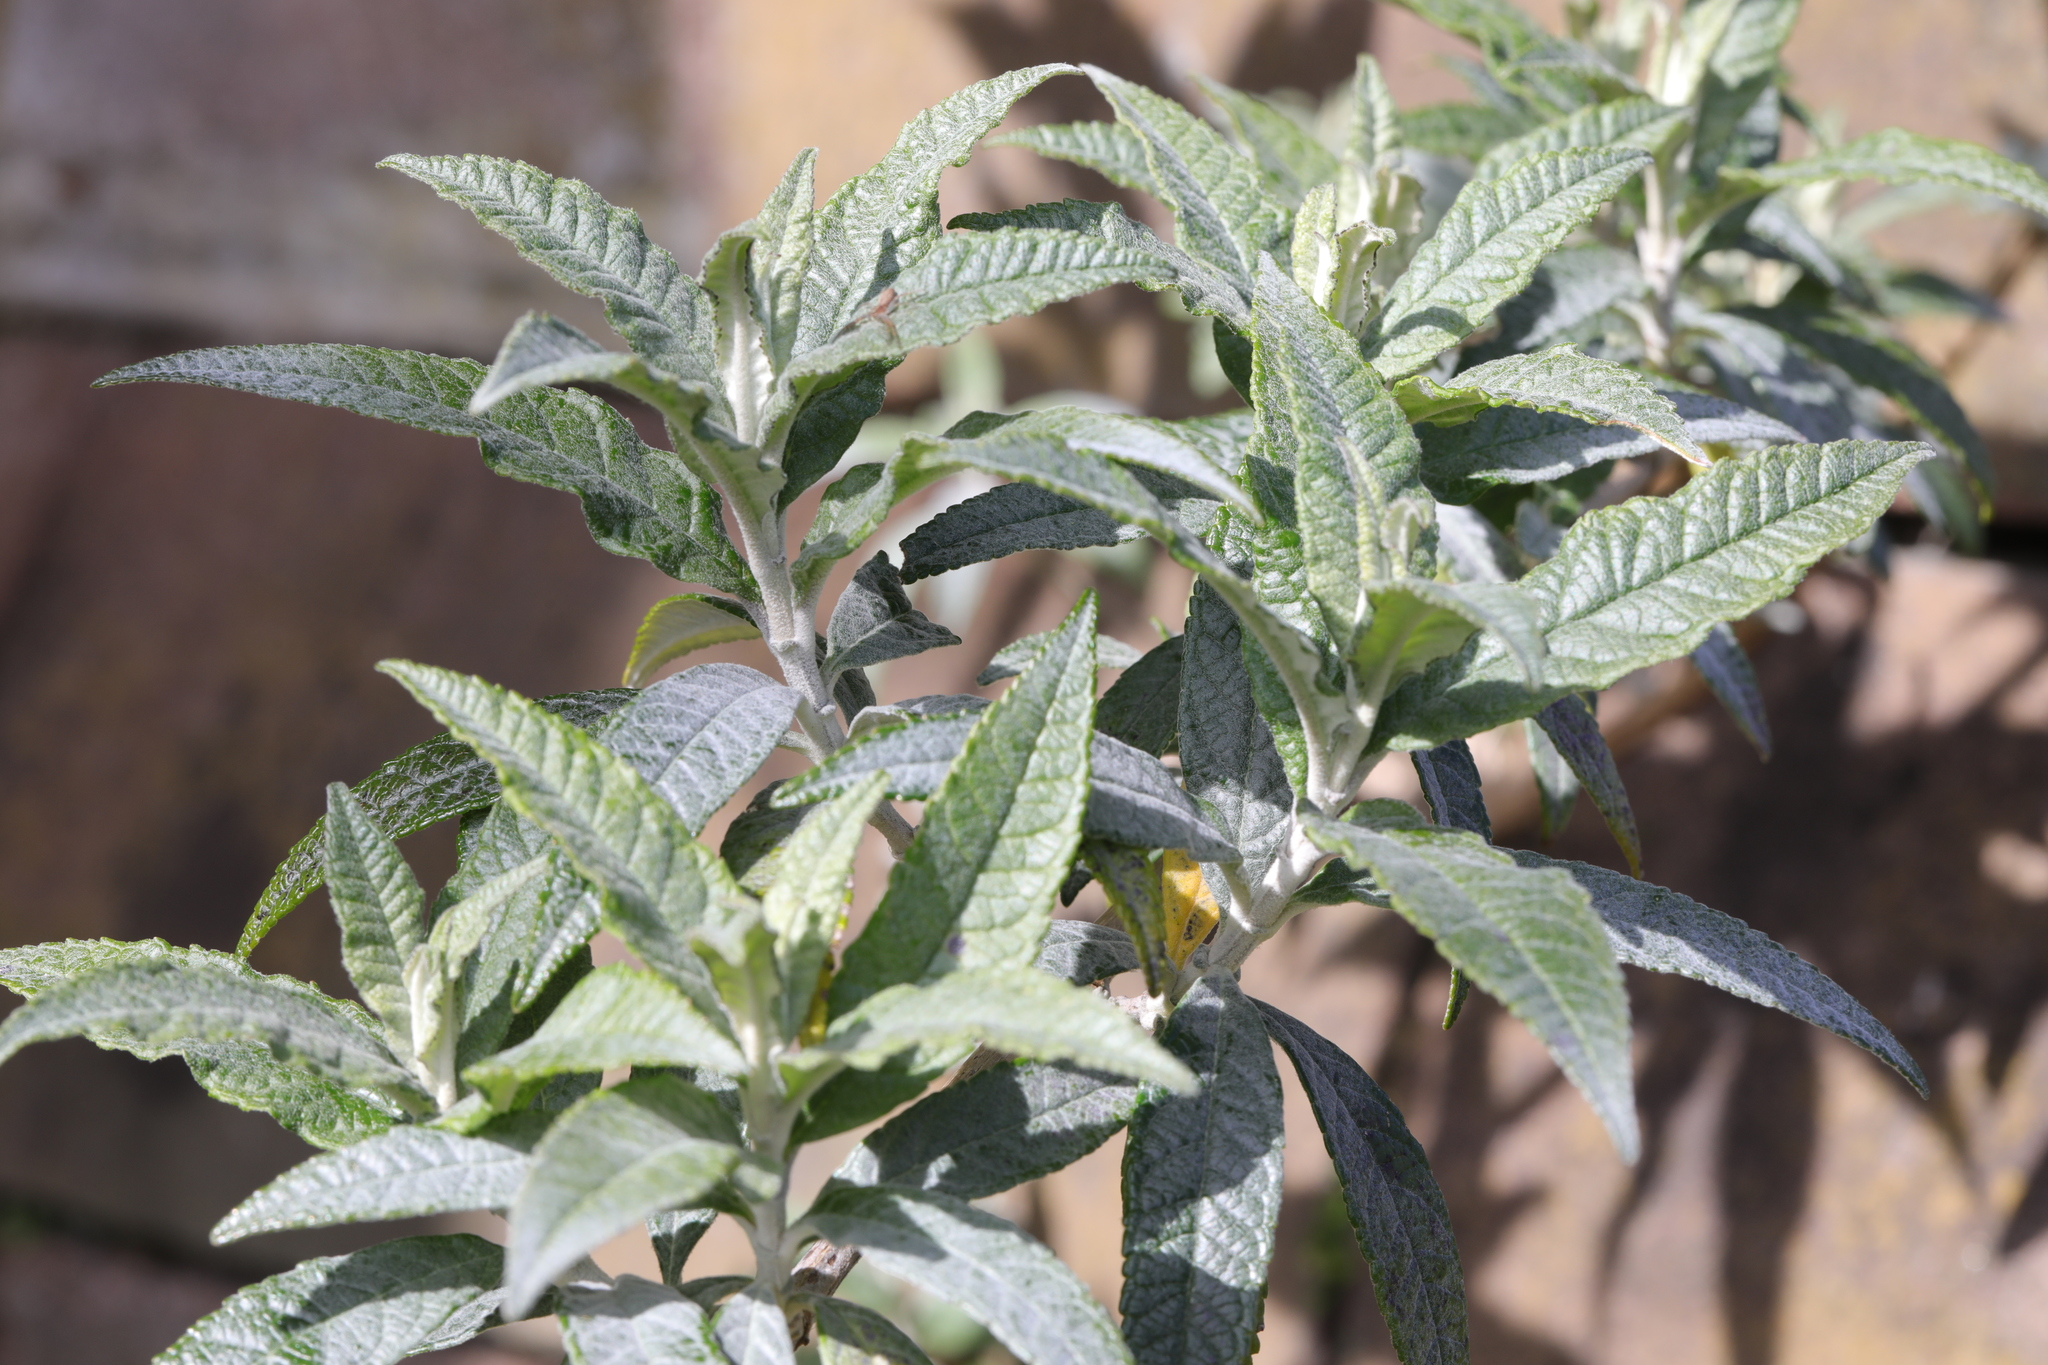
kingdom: Plantae
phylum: Tracheophyta
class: Magnoliopsida
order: Lamiales
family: Scrophulariaceae
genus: Buddleja
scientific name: Buddleja davidii
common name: Butterfly-bush
